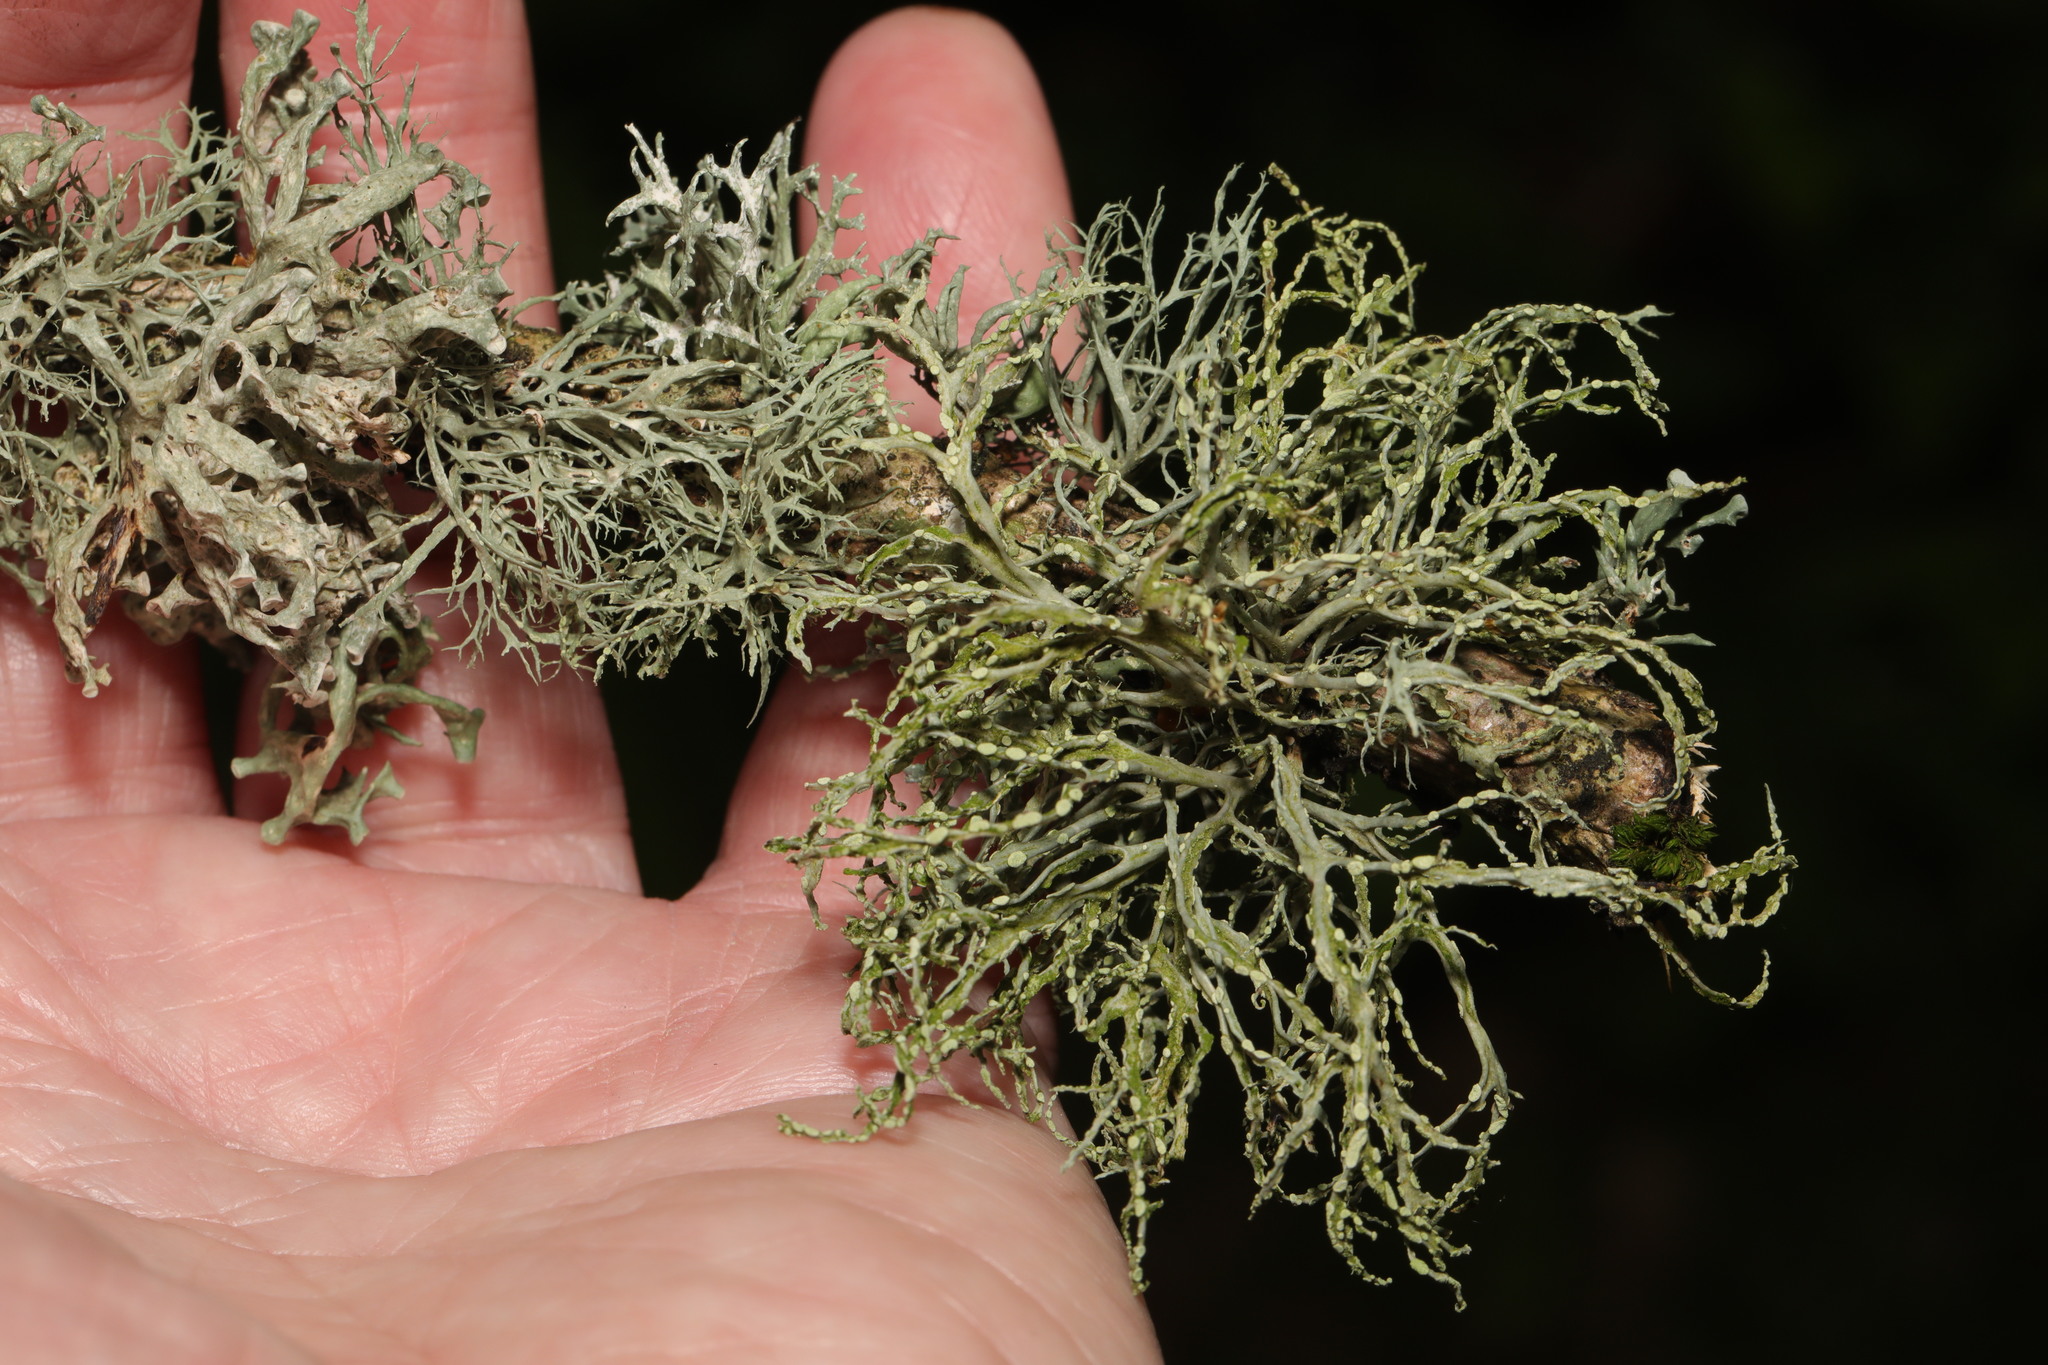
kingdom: Fungi
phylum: Ascomycota
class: Lecanoromycetes
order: Lecanorales
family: Ramalinaceae
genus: Ramalina
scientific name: Ramalina farinacea
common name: Farinose cartilage lichen
